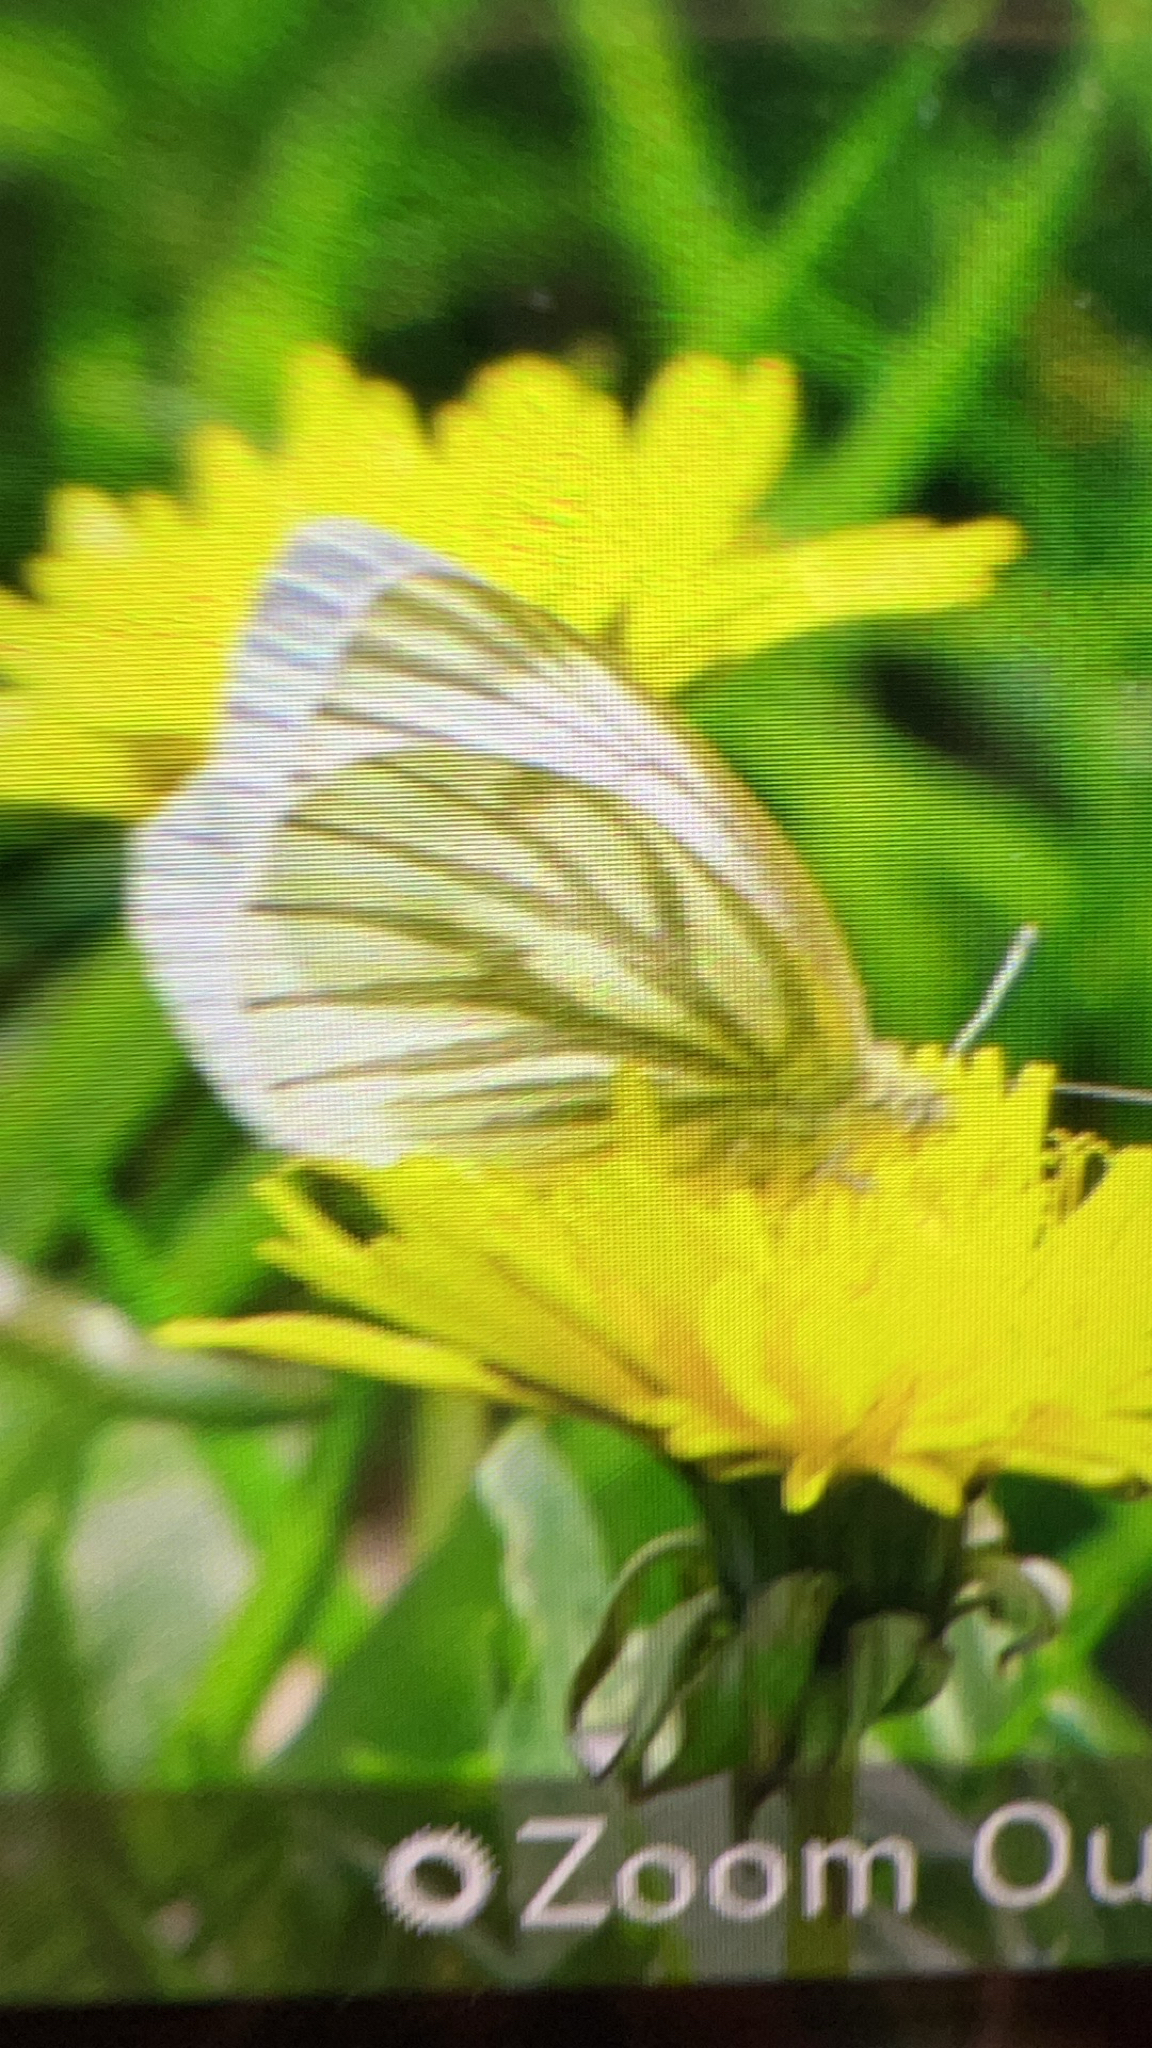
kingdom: Animalia
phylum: Arthropoda
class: Insecta
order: Lepidoptera
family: Pieridae
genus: Pieris
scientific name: Pieris napi
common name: Green-veined white
